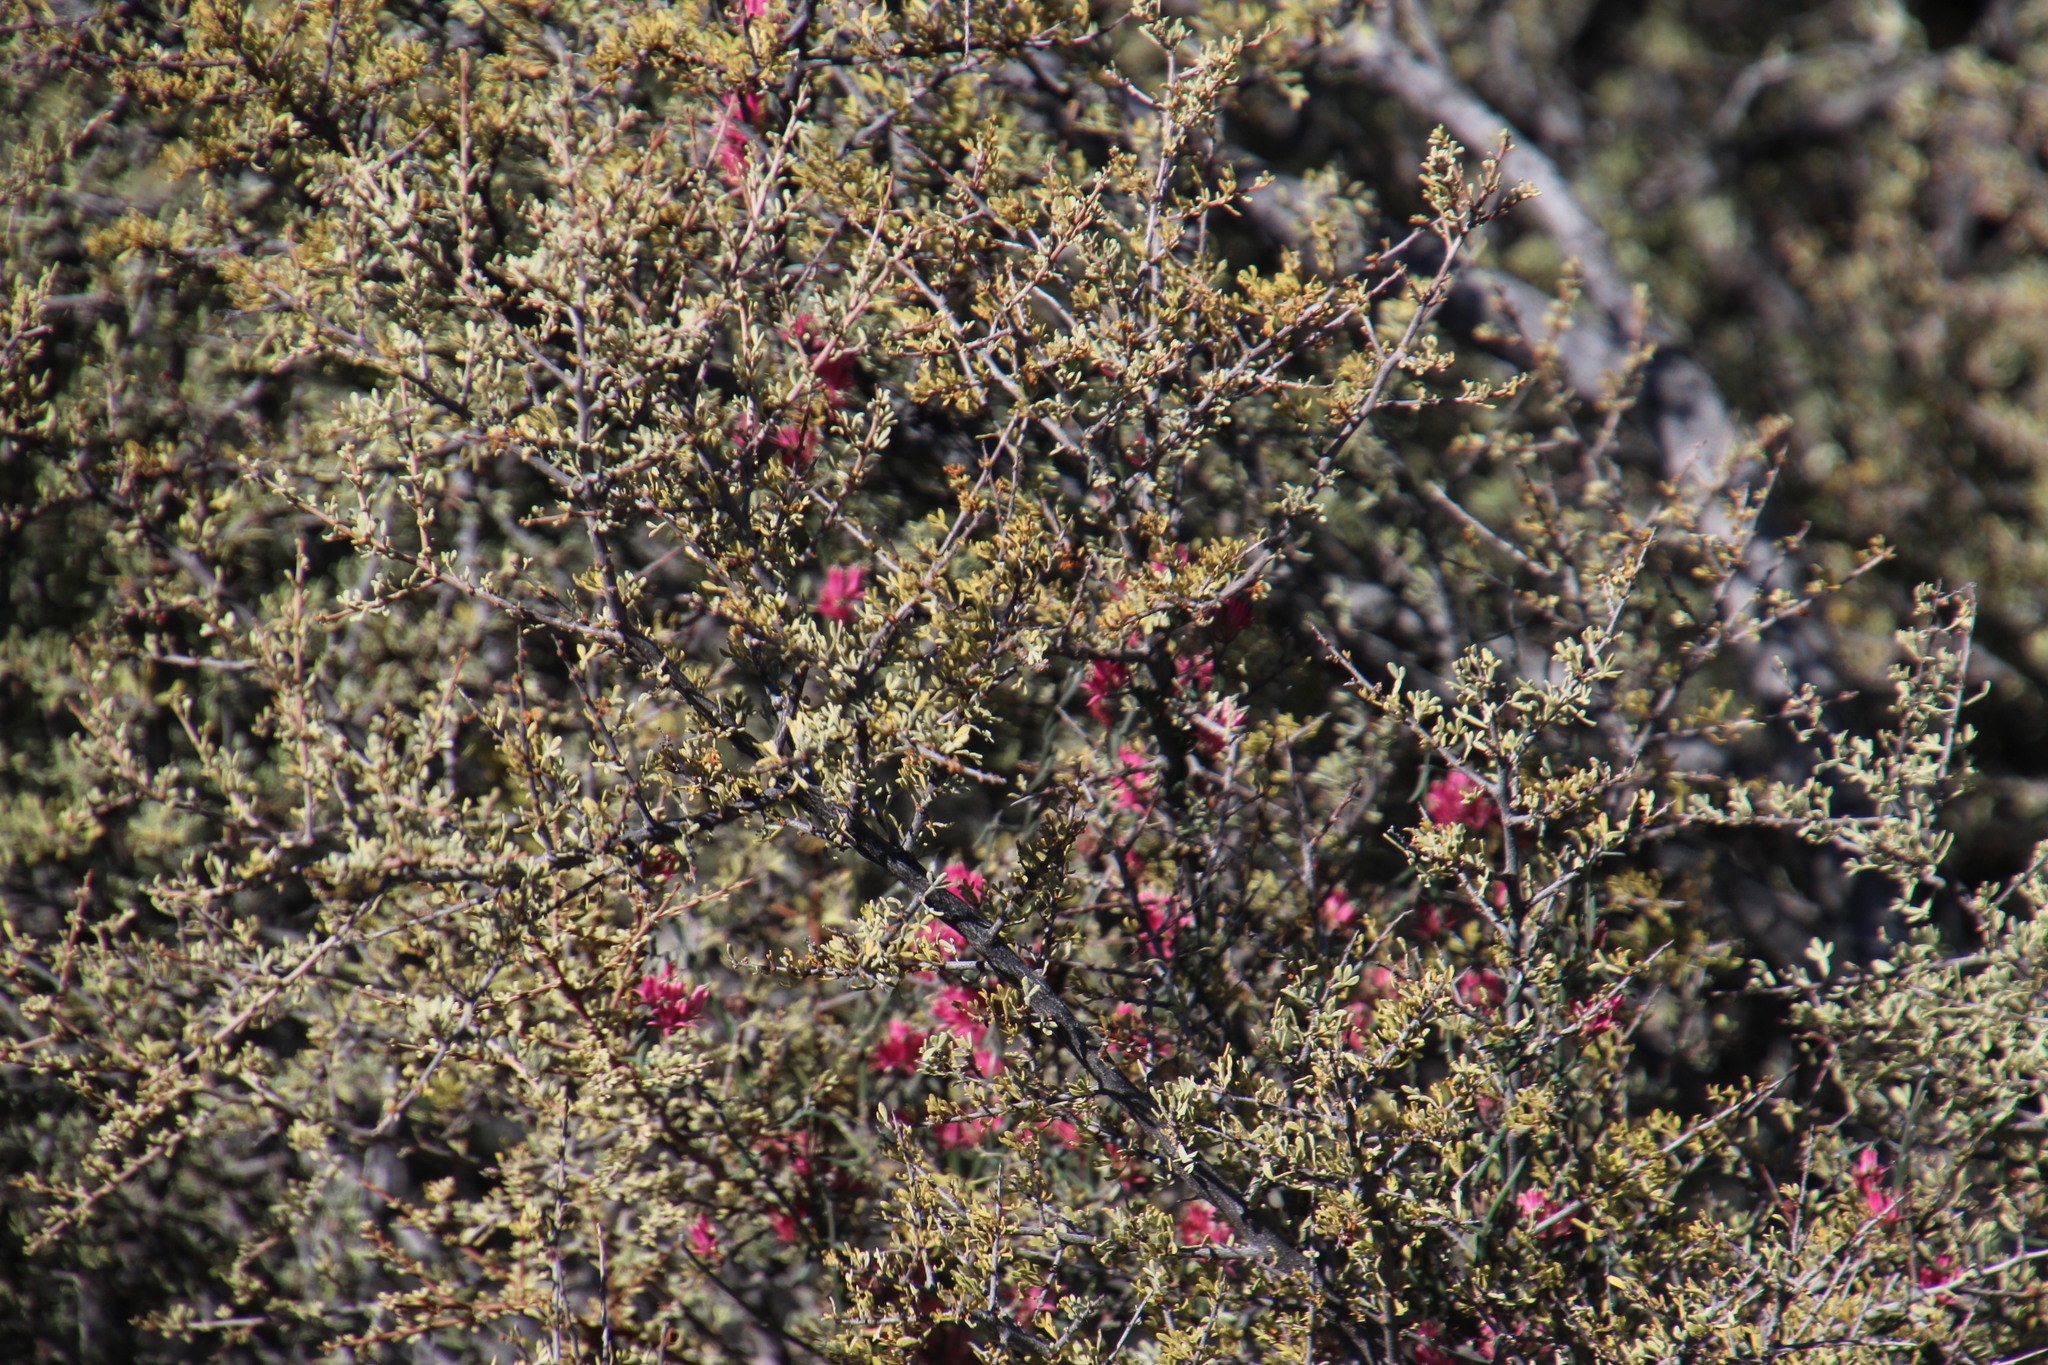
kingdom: Plantae
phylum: Tracheophyta
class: Magnoliopsida
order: Sapindales
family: Anacardiaceae
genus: Searsia
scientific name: Searsia horrida
